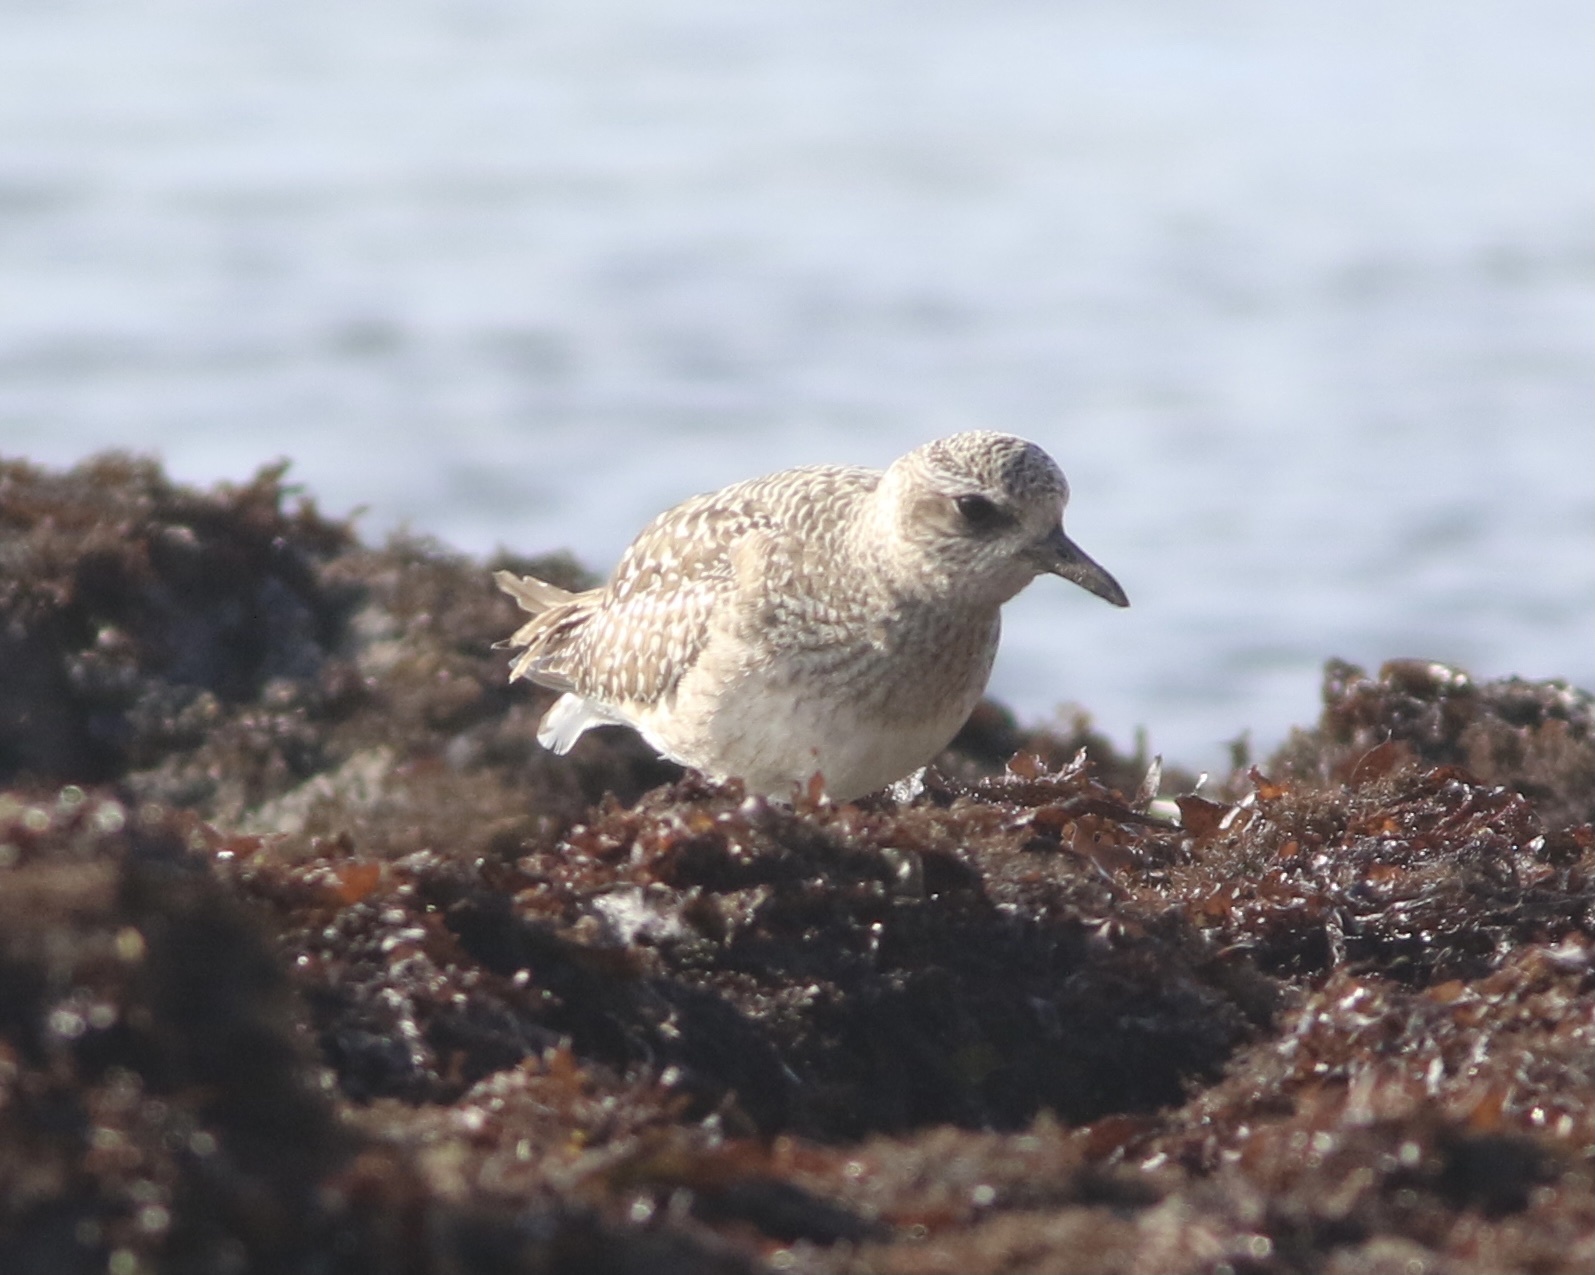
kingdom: Animalia
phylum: Chordata
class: Aves
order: Charadriiformes
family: Charadriidae
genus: Pluvialis
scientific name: Pluvialis squatarola
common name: Grey plover
